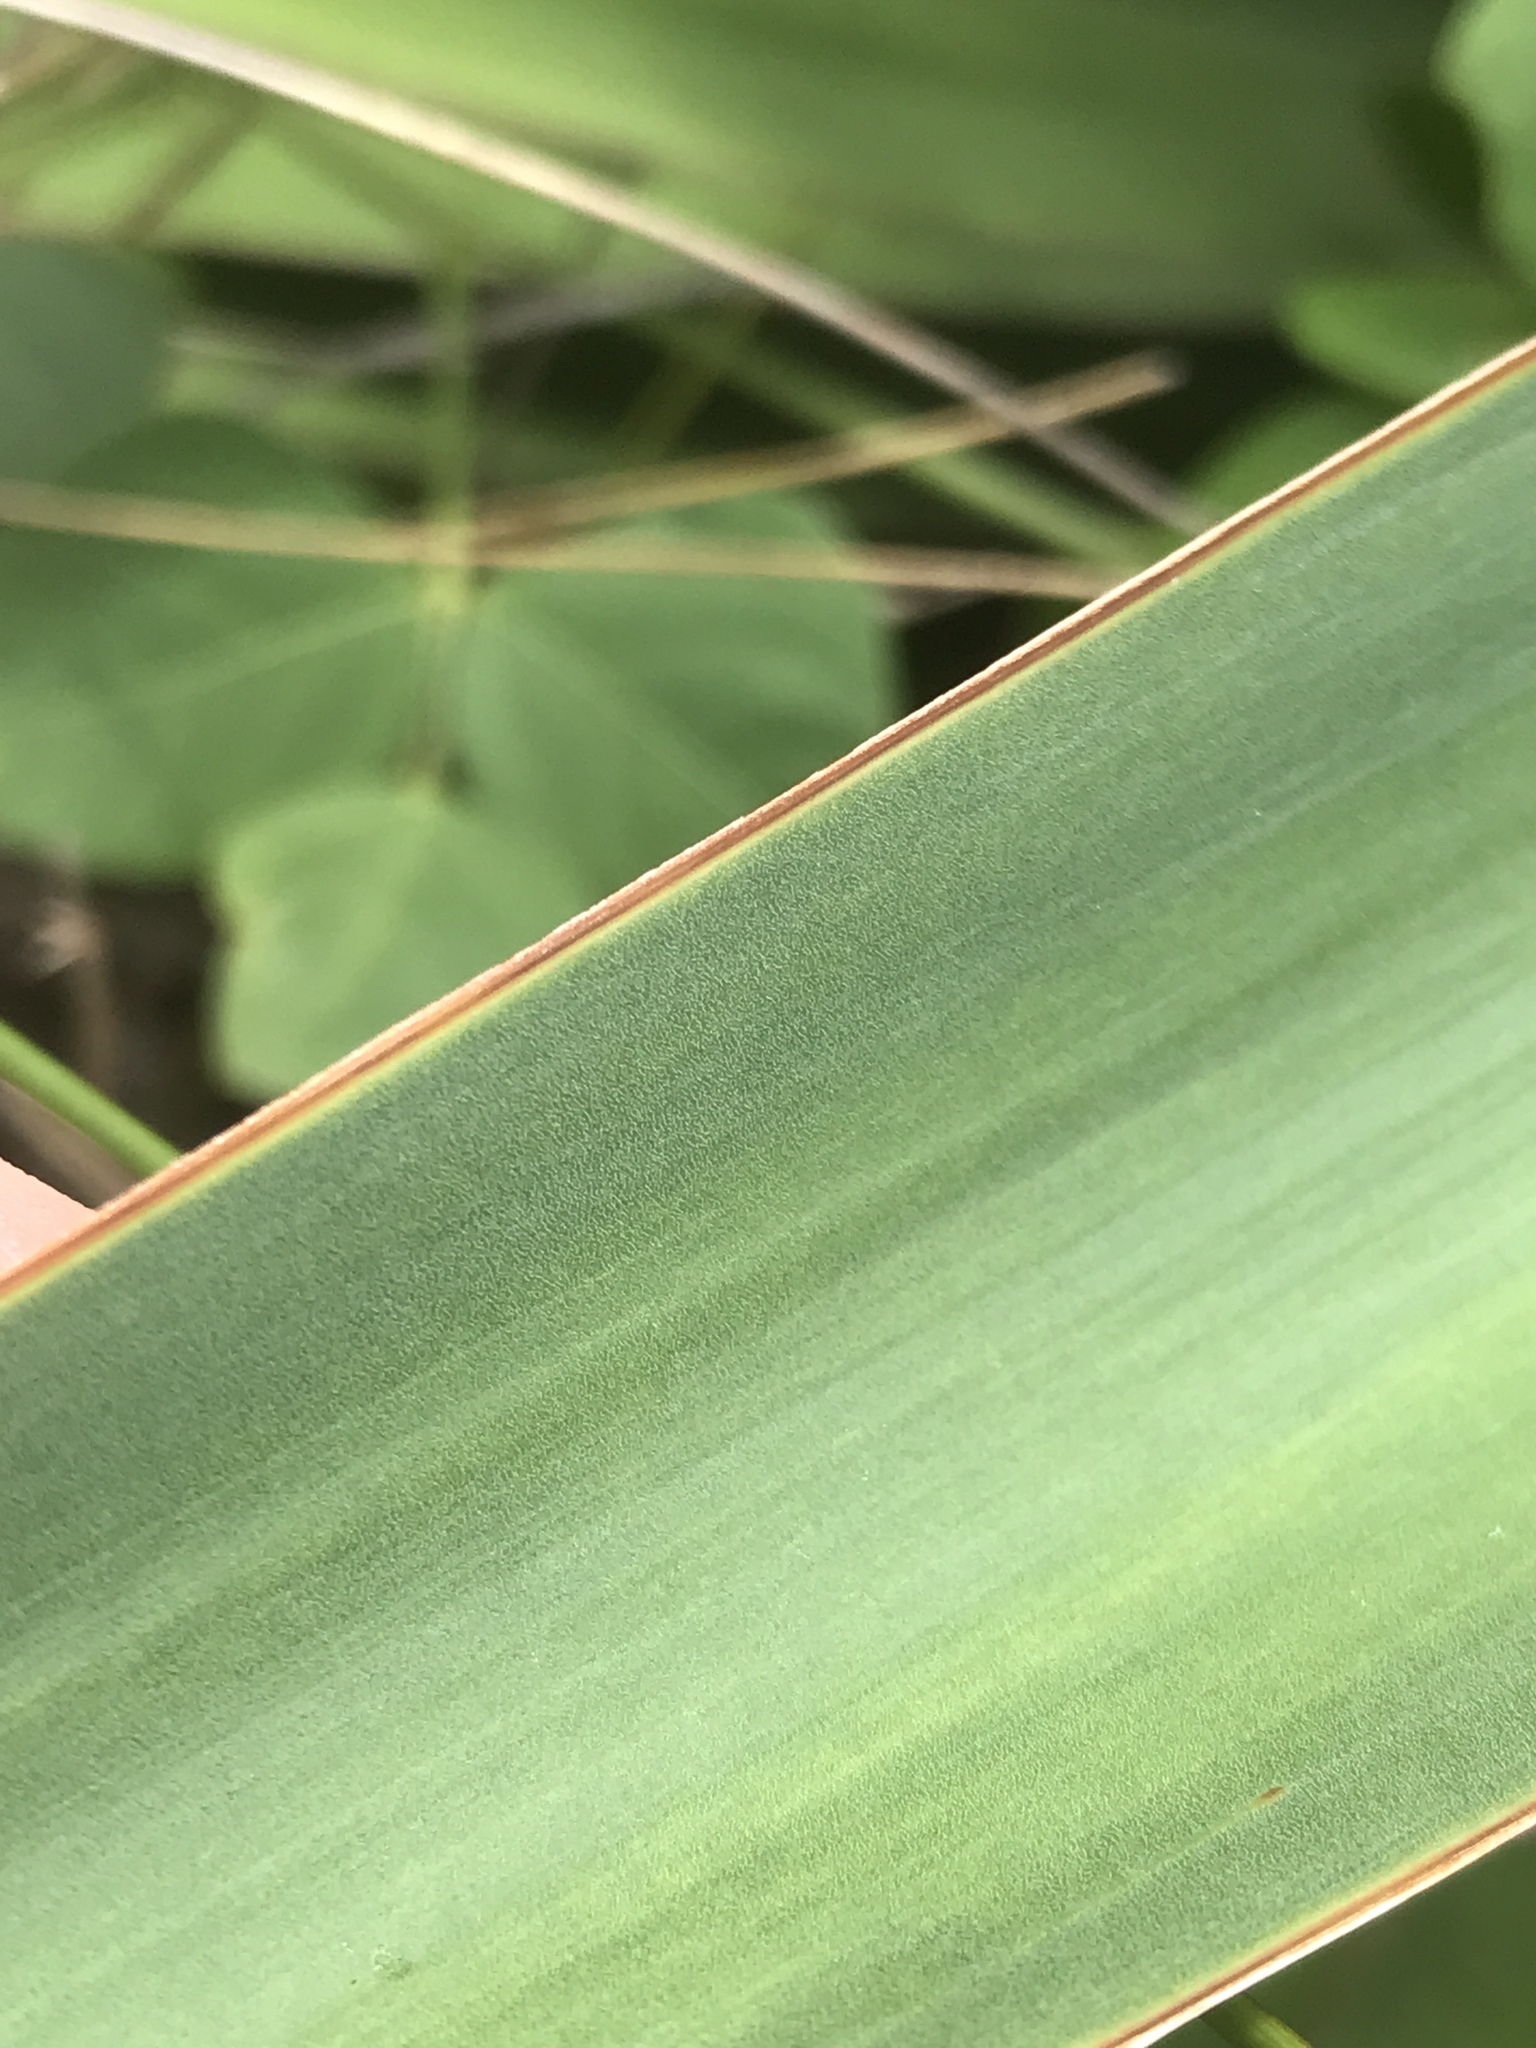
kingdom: Plantae
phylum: Tracheophyta
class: Liliopsida
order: Asparagales
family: Asparagaceae
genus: Yucca
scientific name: Yucca gloriosa
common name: Spanish-dagger
